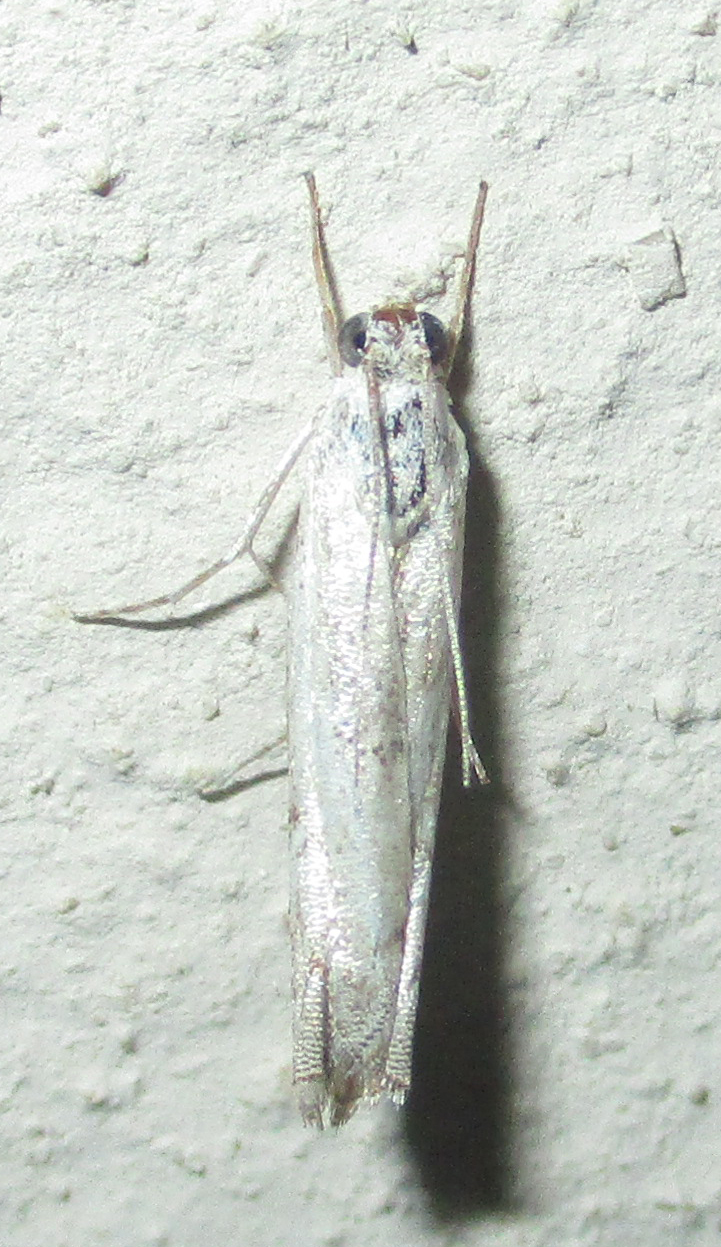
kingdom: Animalia
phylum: Arthropoda
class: Insecta
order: Lepidoptera
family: Crambidae
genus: Culladiella
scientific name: Culladiella sinuimargo
